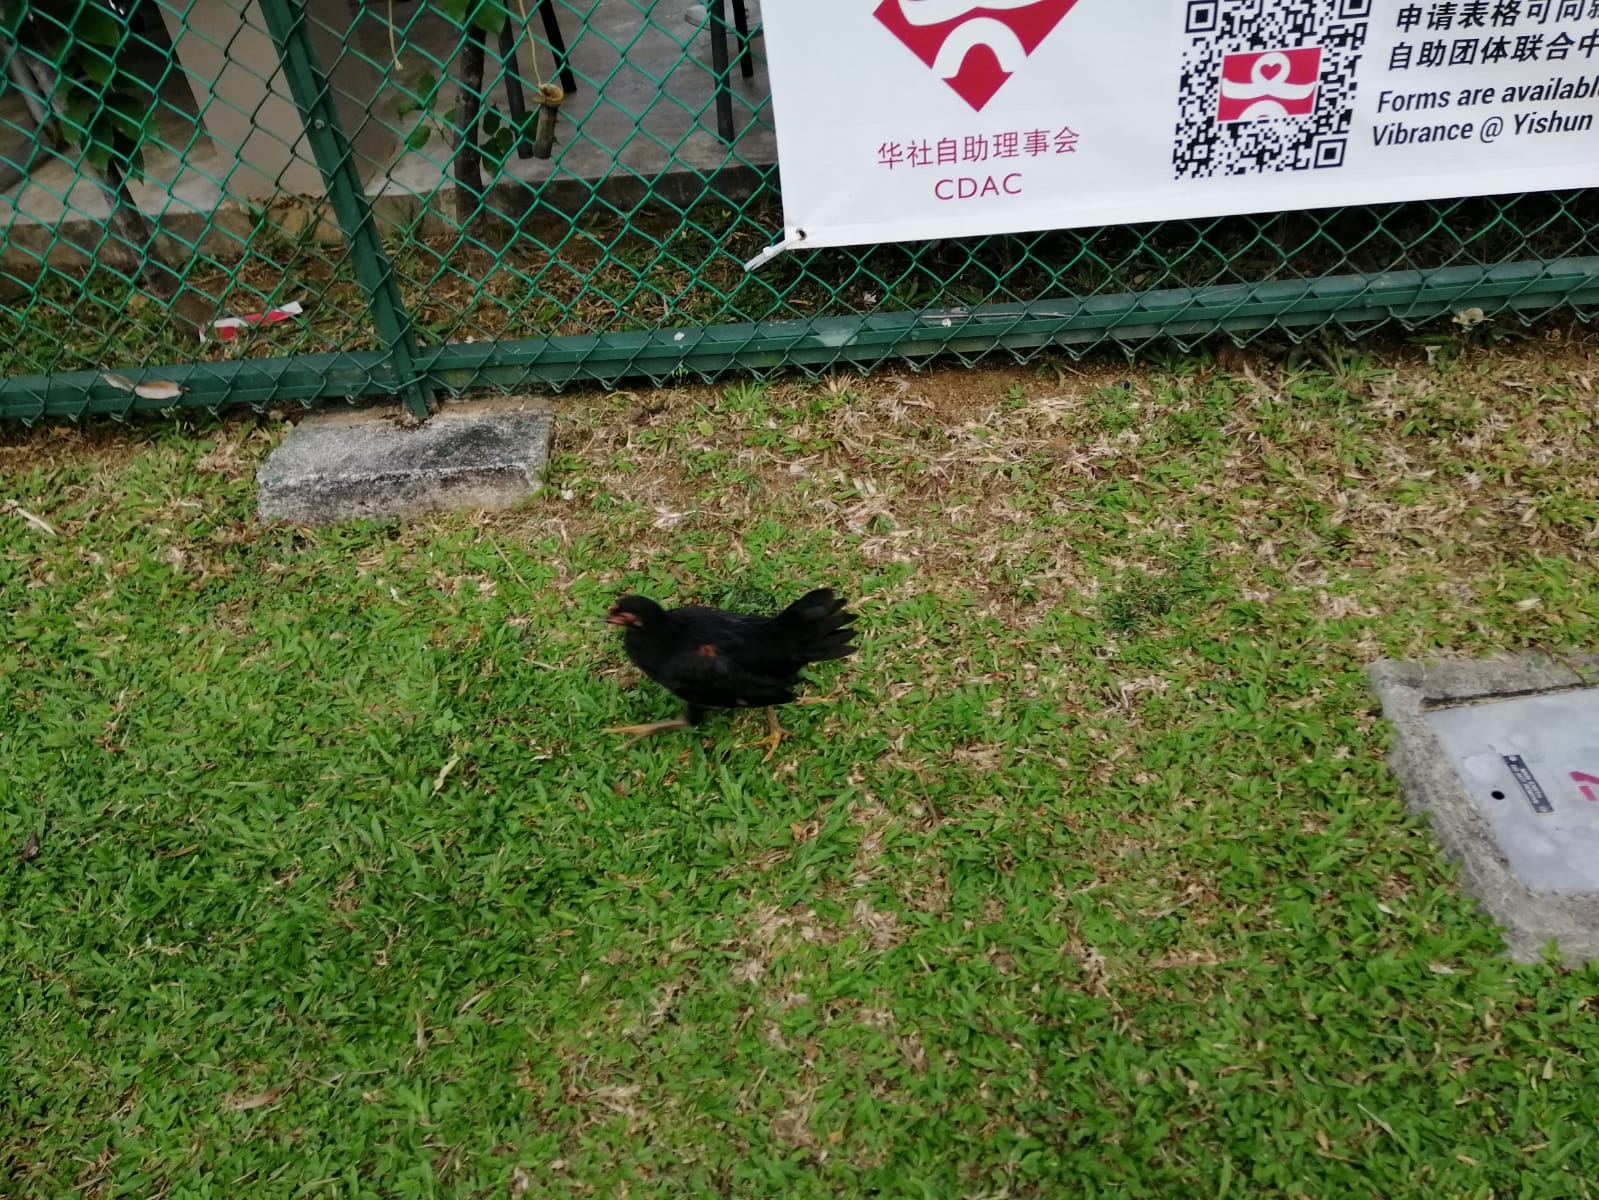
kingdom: Animalia
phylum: Chordata
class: Aves
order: Galliformes
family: Phasianidae
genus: Gallus
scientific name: Gallus gallus
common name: Red junglefowl
